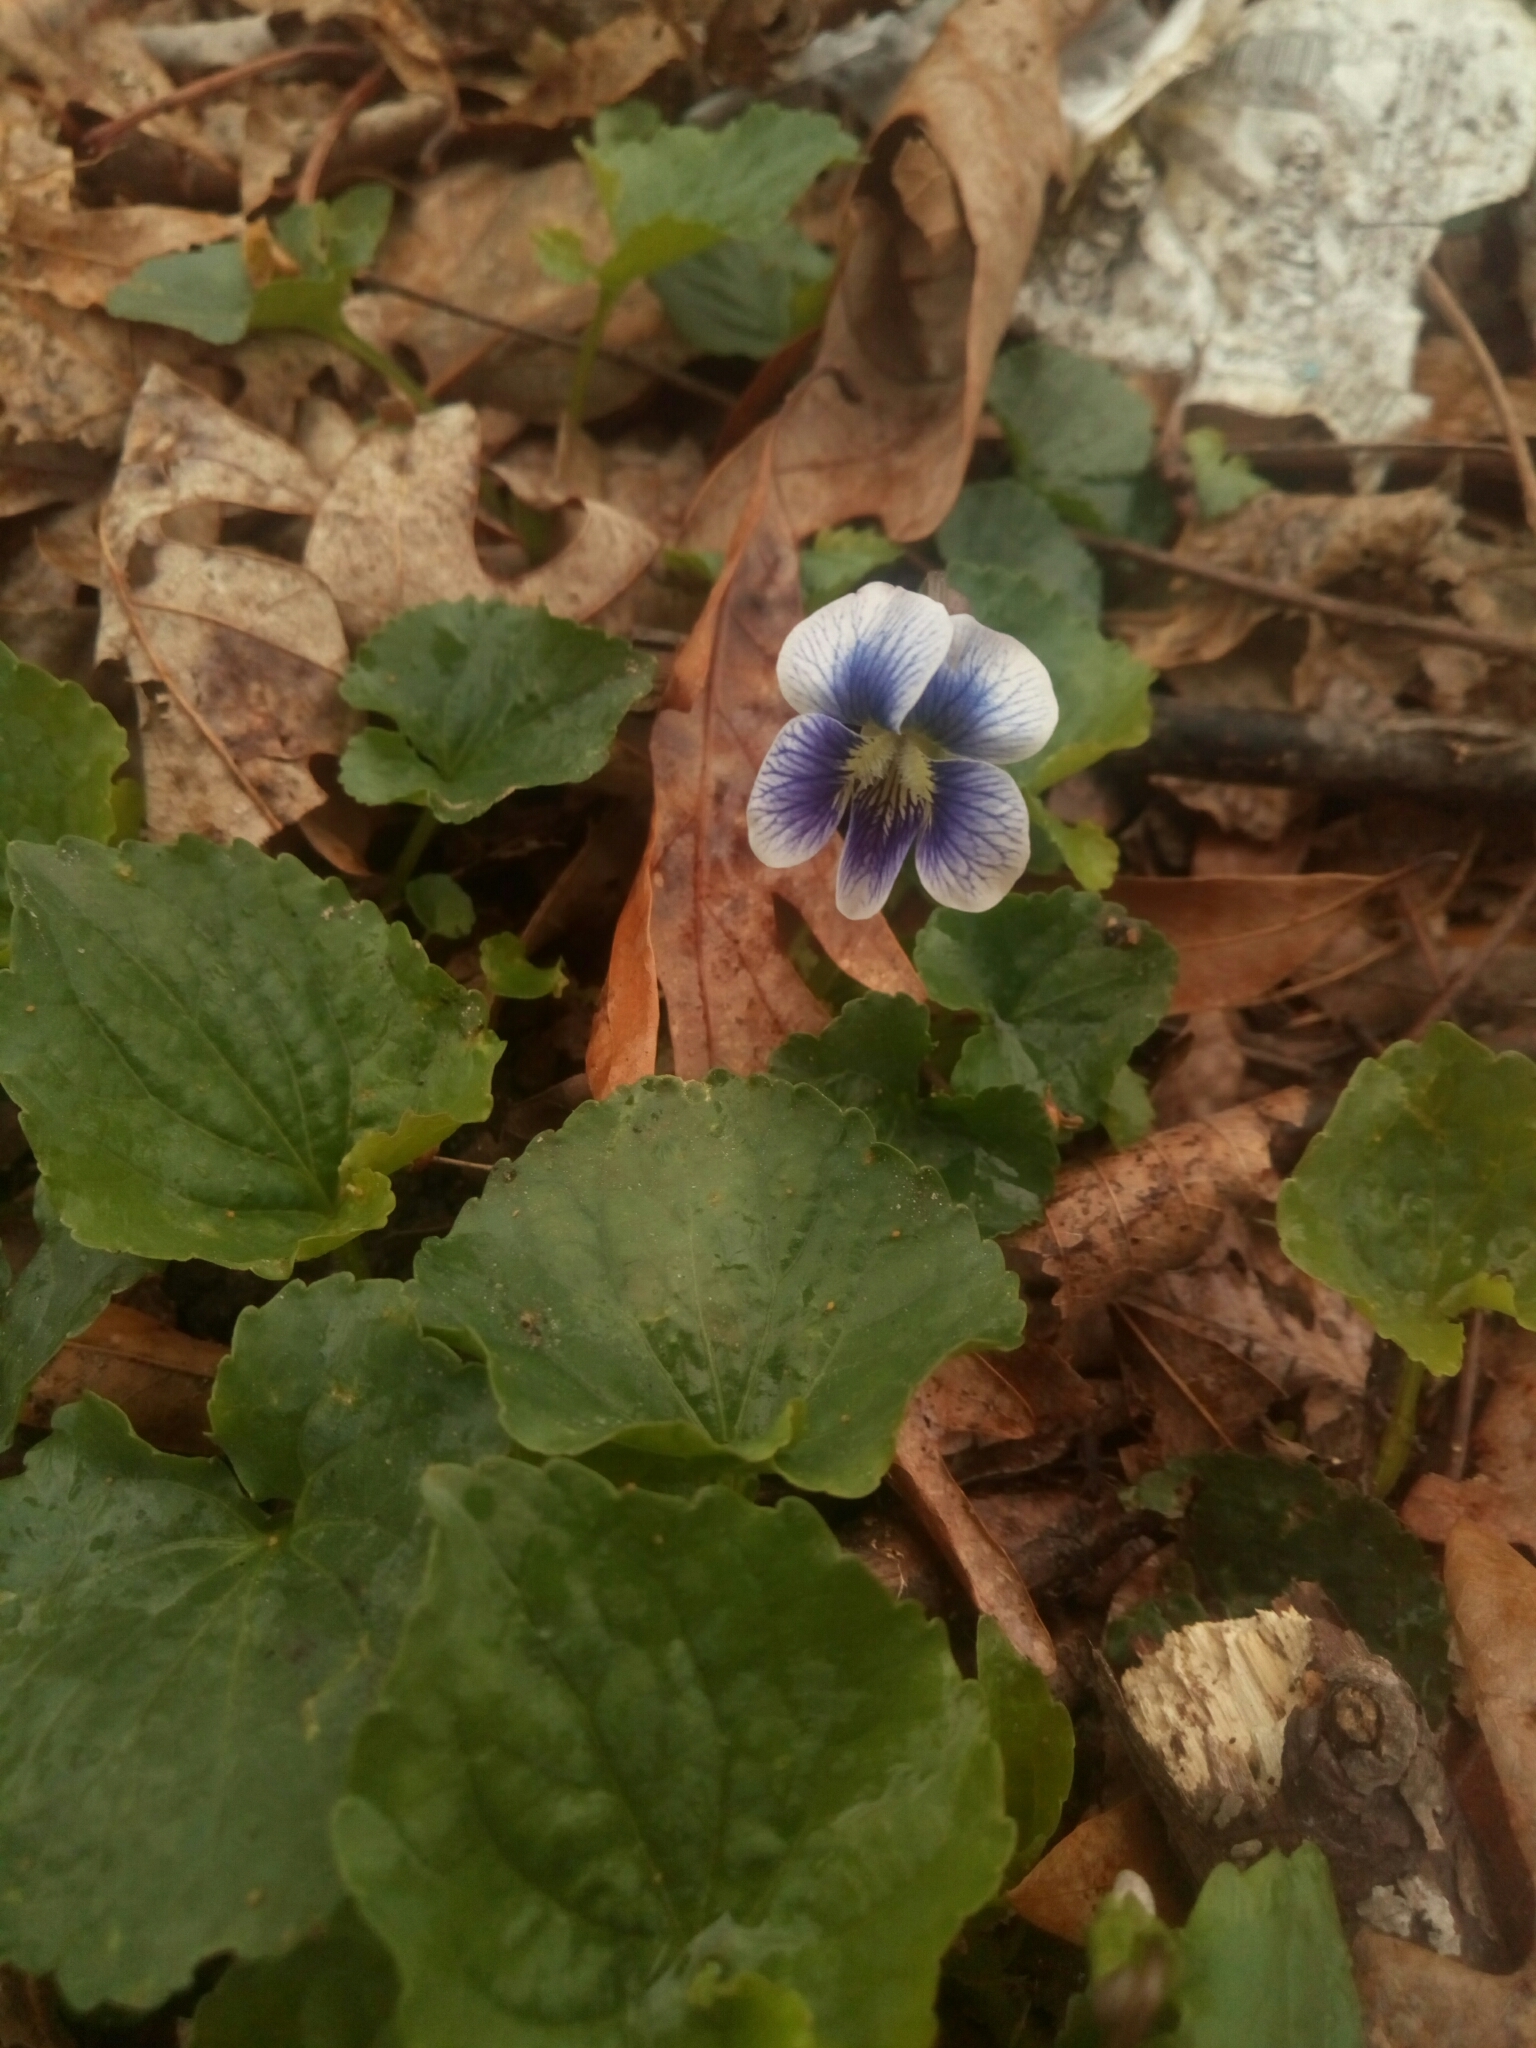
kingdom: Plantae
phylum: Tracheophyta
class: Magnoliopsida
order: Malpighiales
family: Violaceae
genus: Viola
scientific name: Viola sororia
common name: Dooryard violet
